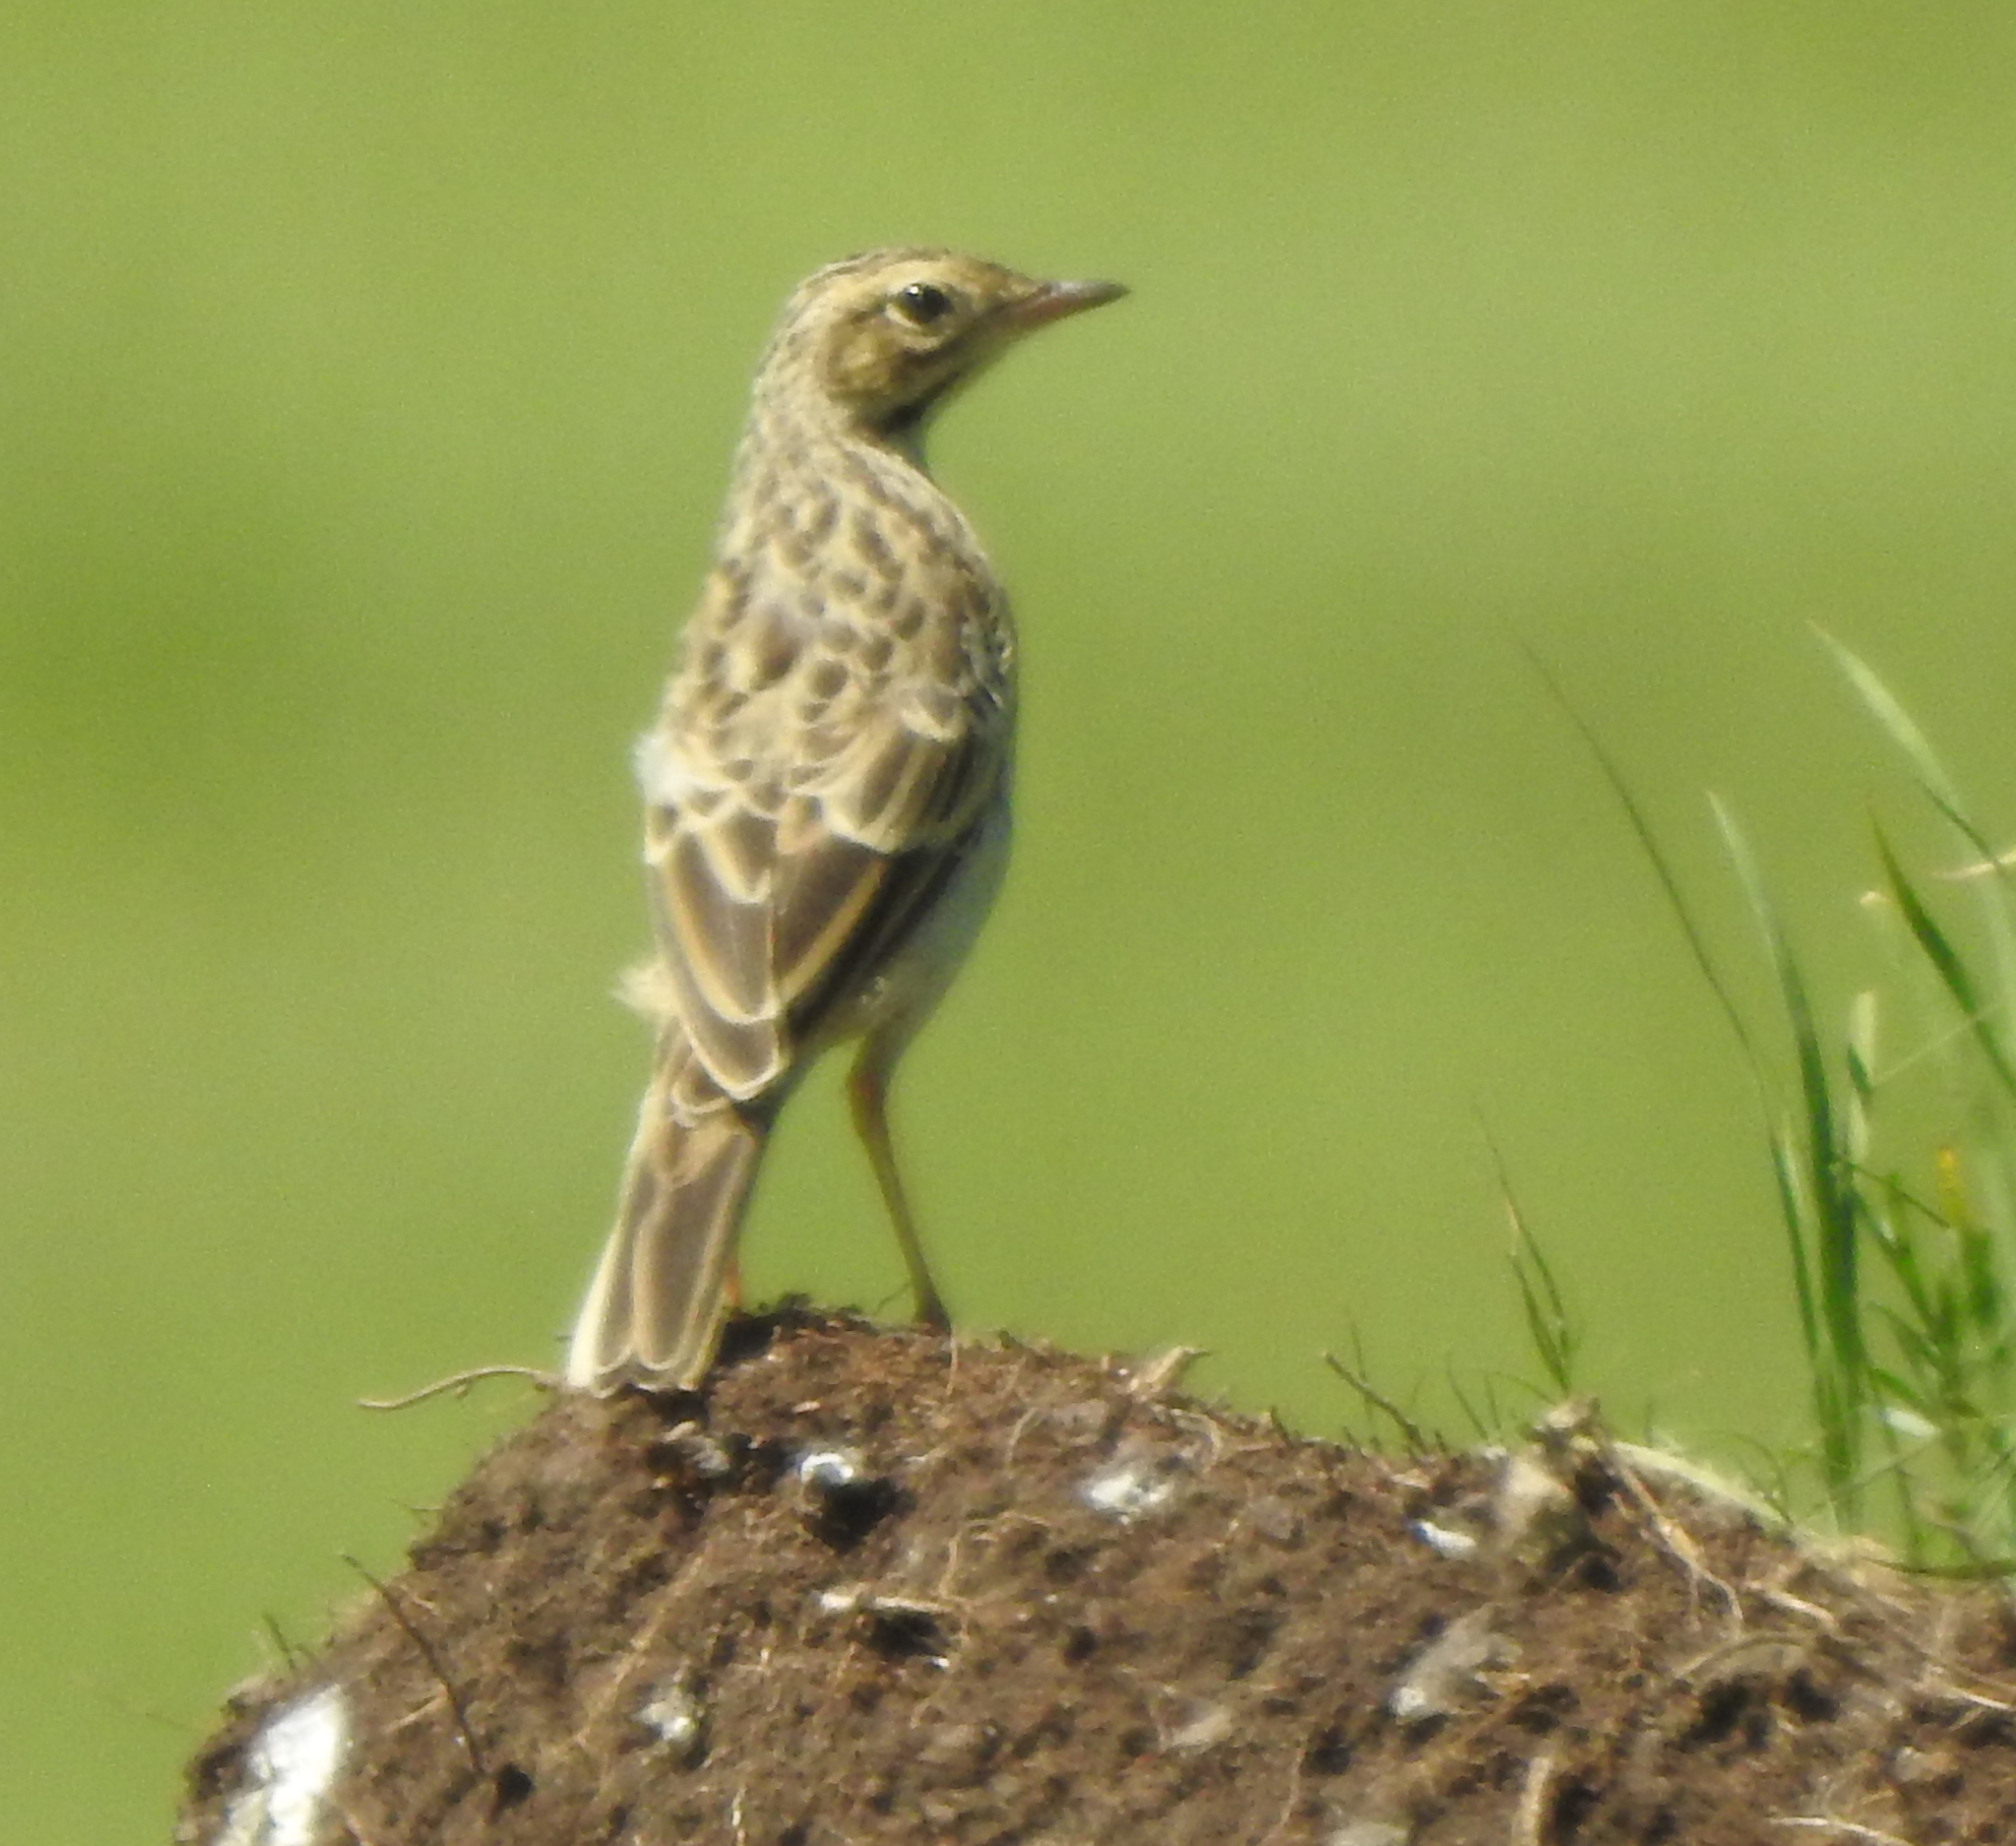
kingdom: Animalia
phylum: Chordata
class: Aves
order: Passeriformes
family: Motacillidae
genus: Anthus
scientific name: Anthus richardi
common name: Richard's pipit
